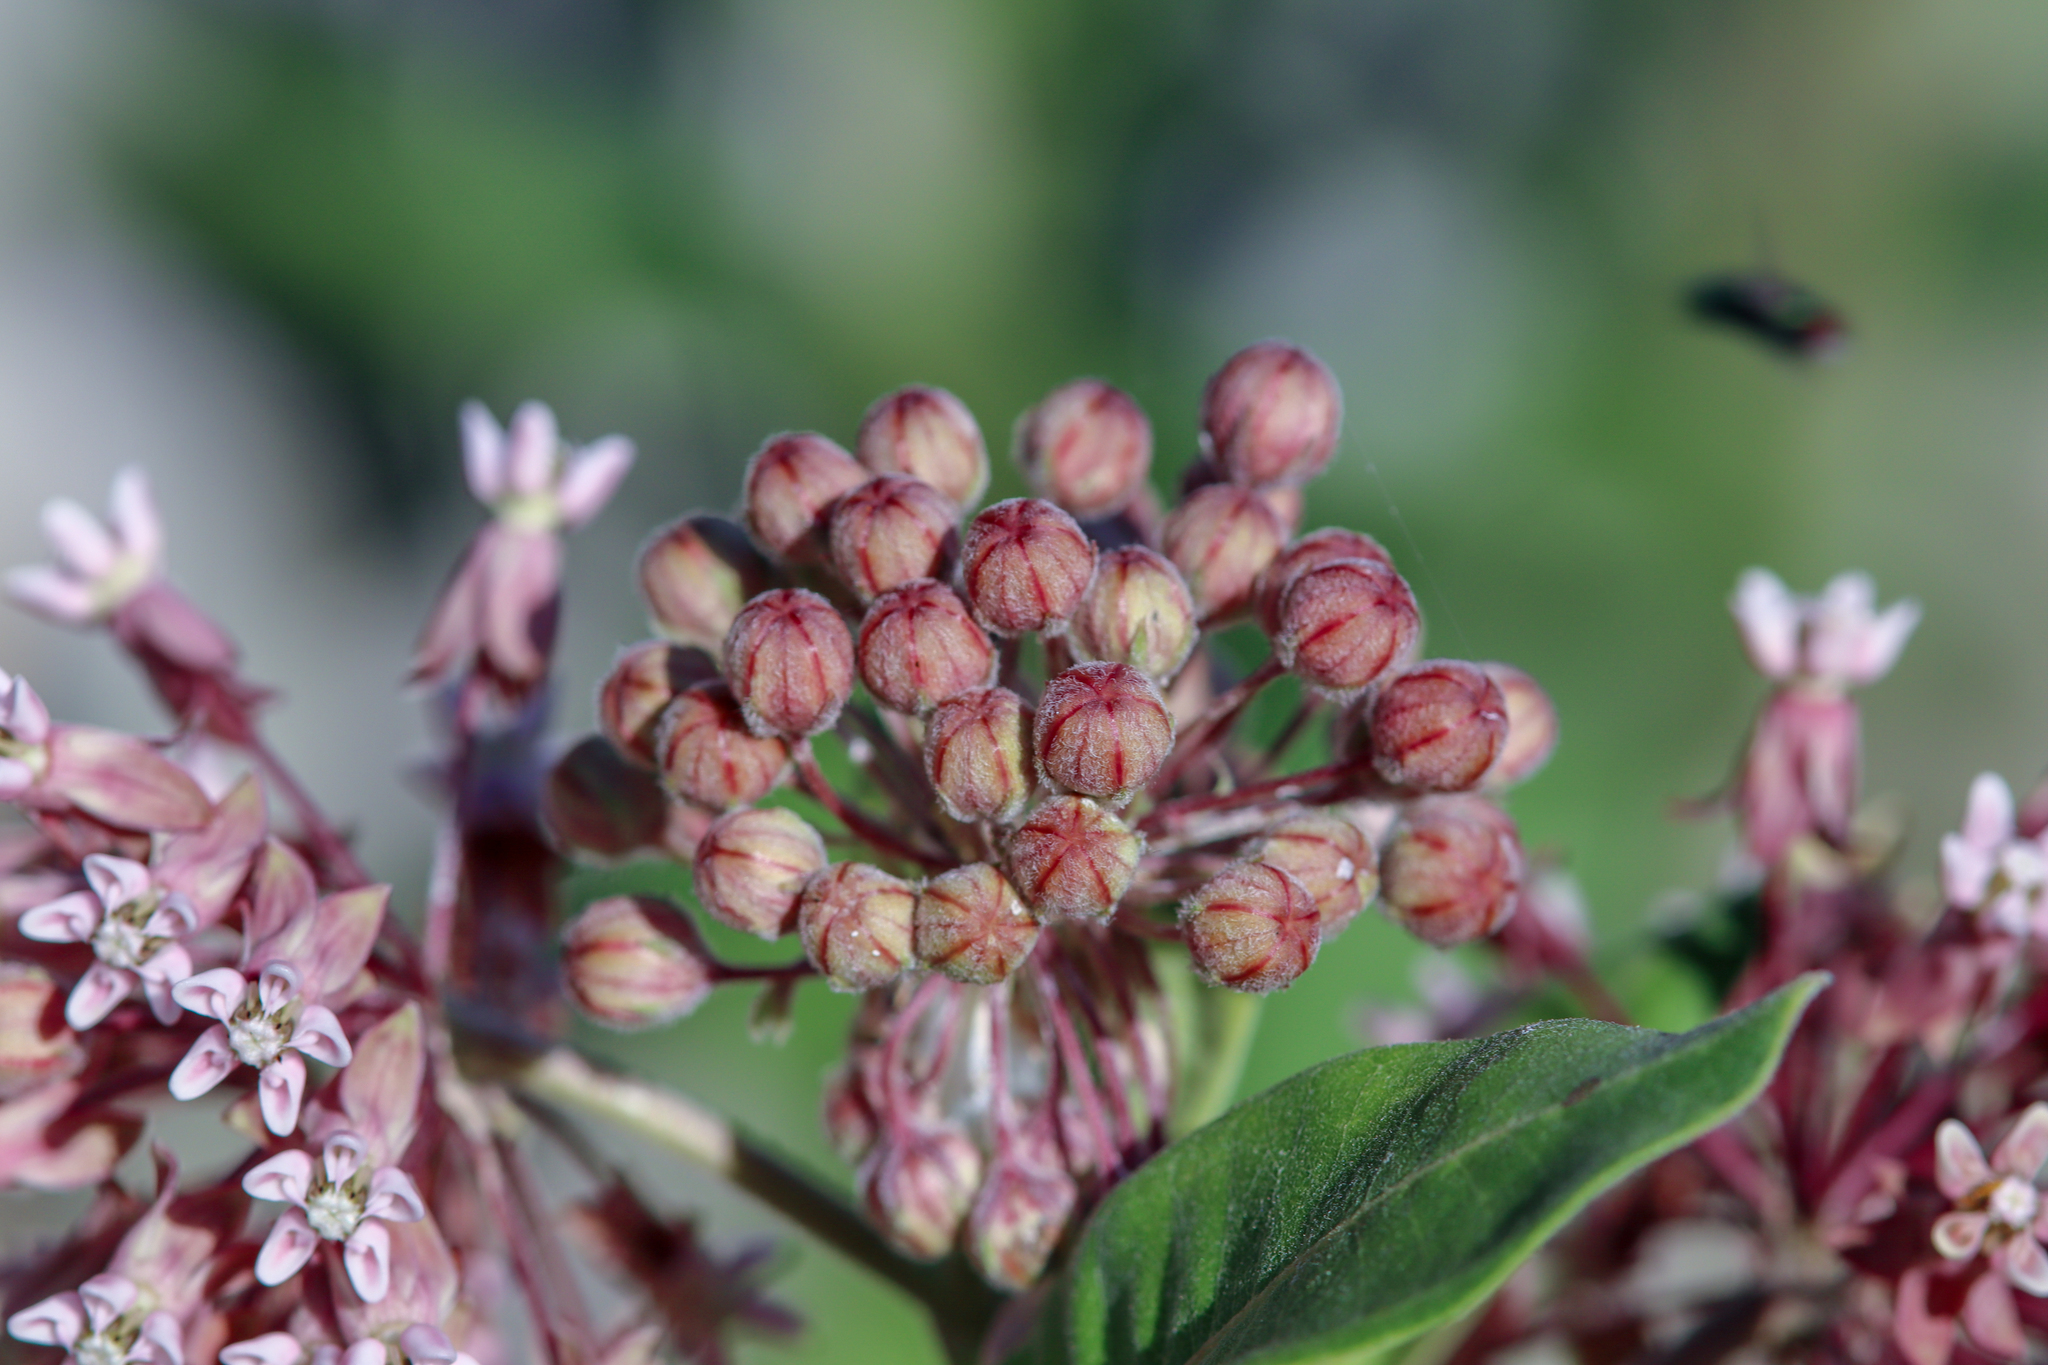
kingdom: Plantae
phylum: Tracheophyta
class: Magnoliopsida
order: Gentianales
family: Apocynaceae
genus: Asclepias
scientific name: Asclepias syriaca
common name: Common milkweed
